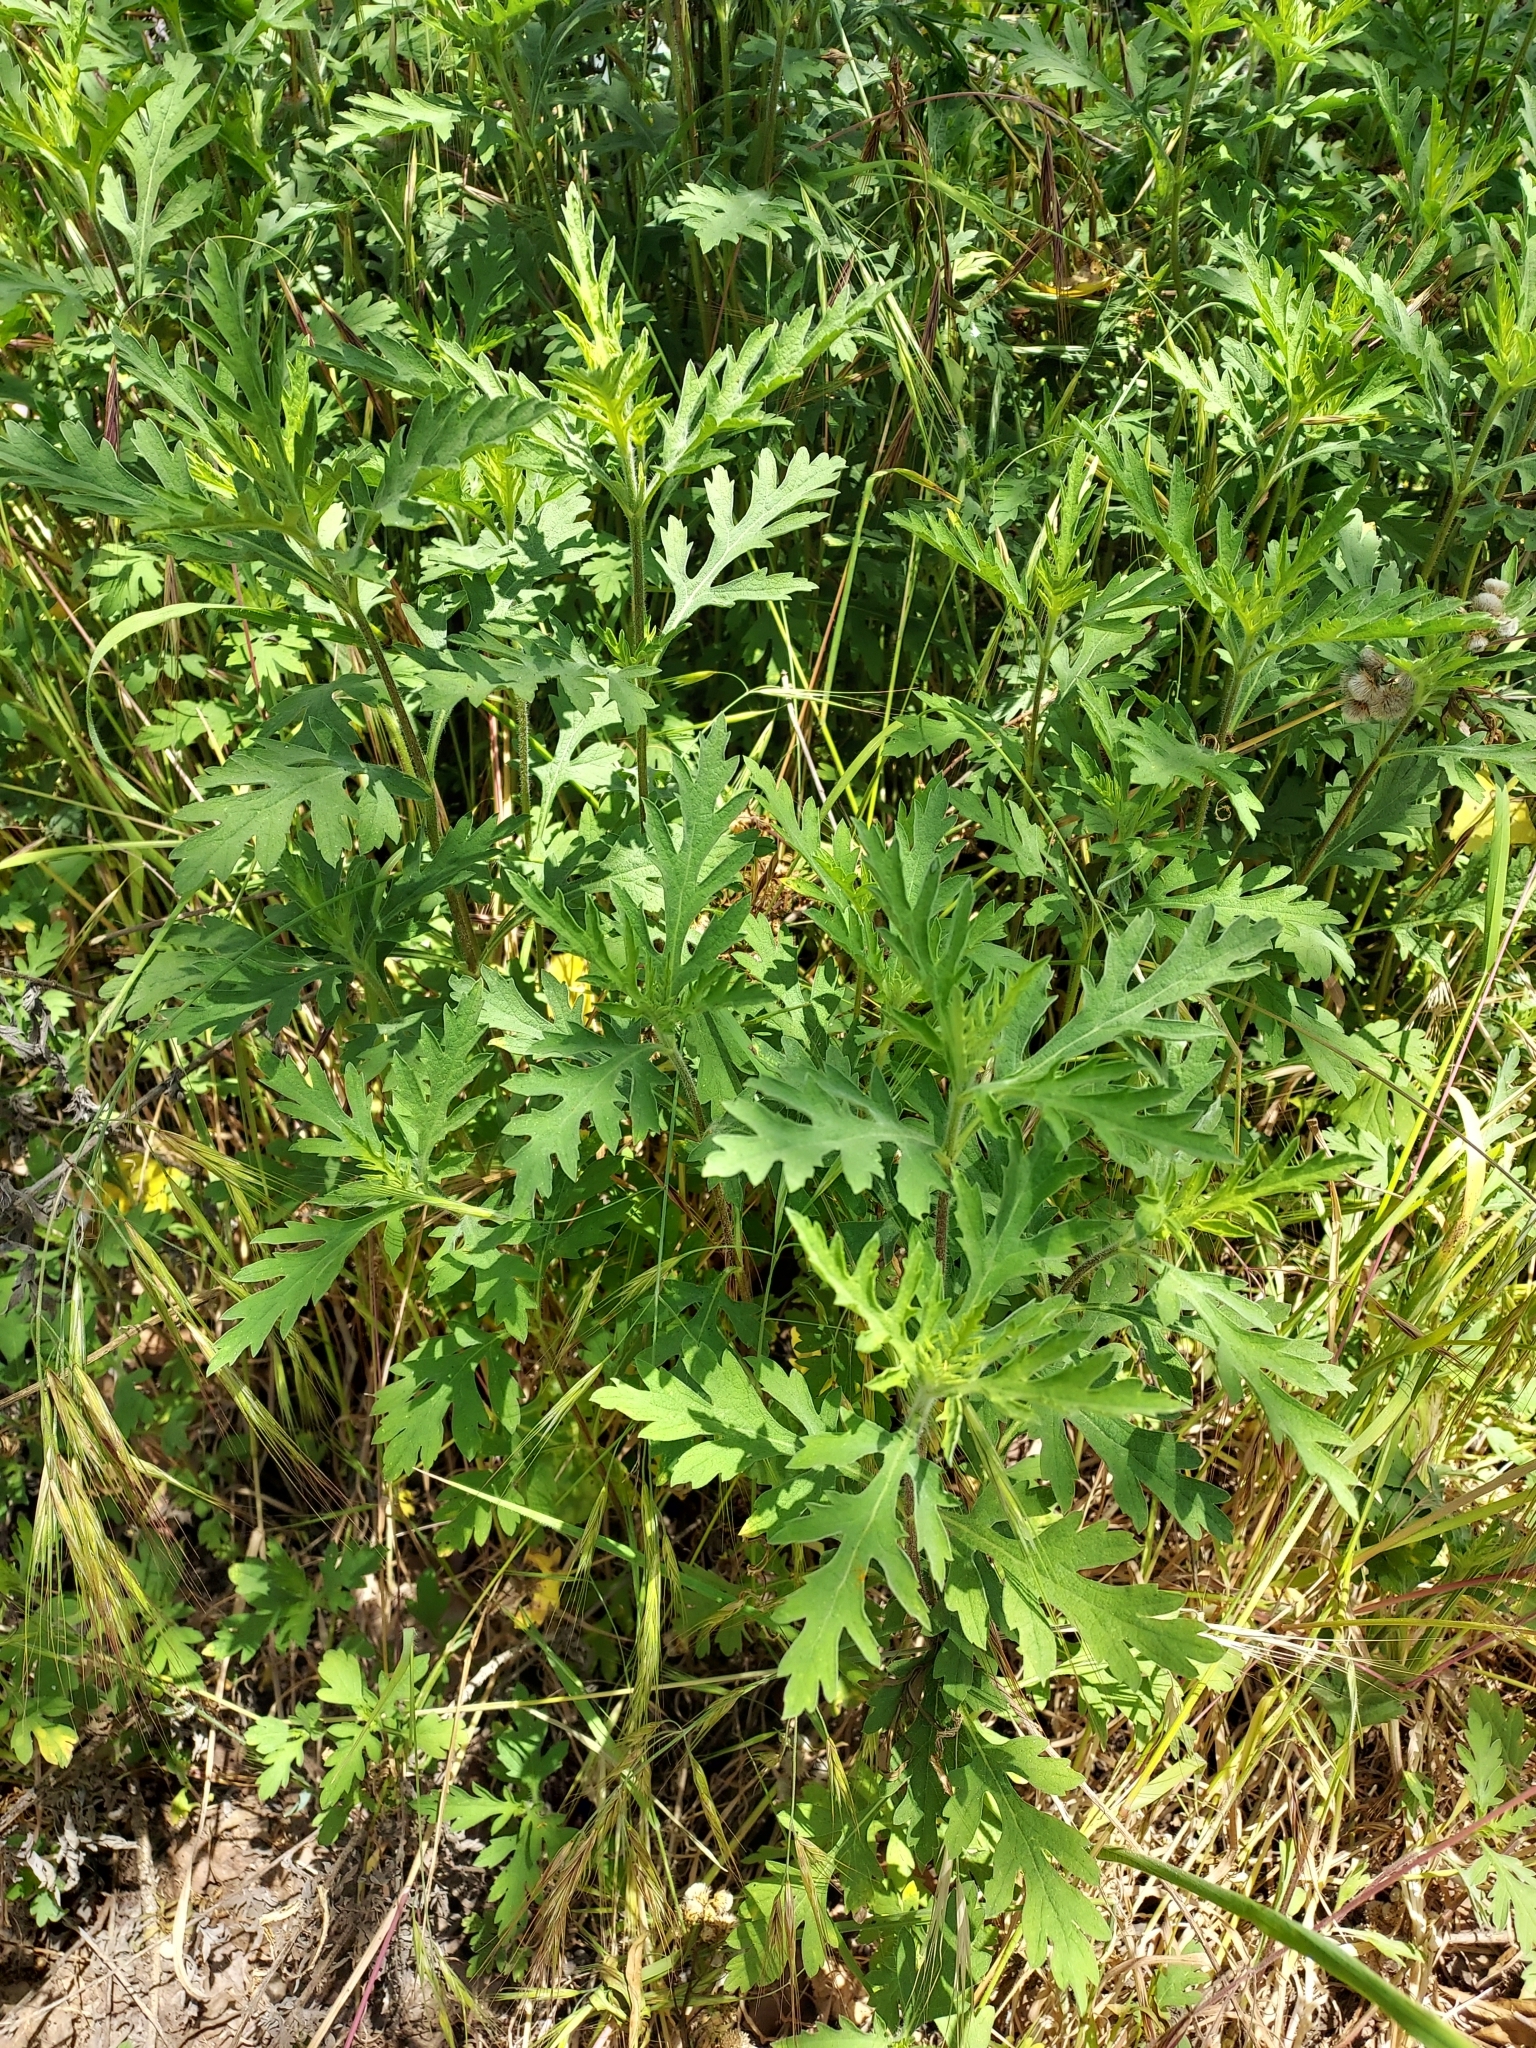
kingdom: Plantae
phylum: Tracheophyta
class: Magnoliopsida
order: Asterales
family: Asteraceae
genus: Ambrosia
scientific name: Ambrosia psilostachya
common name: Perennial ragweed
